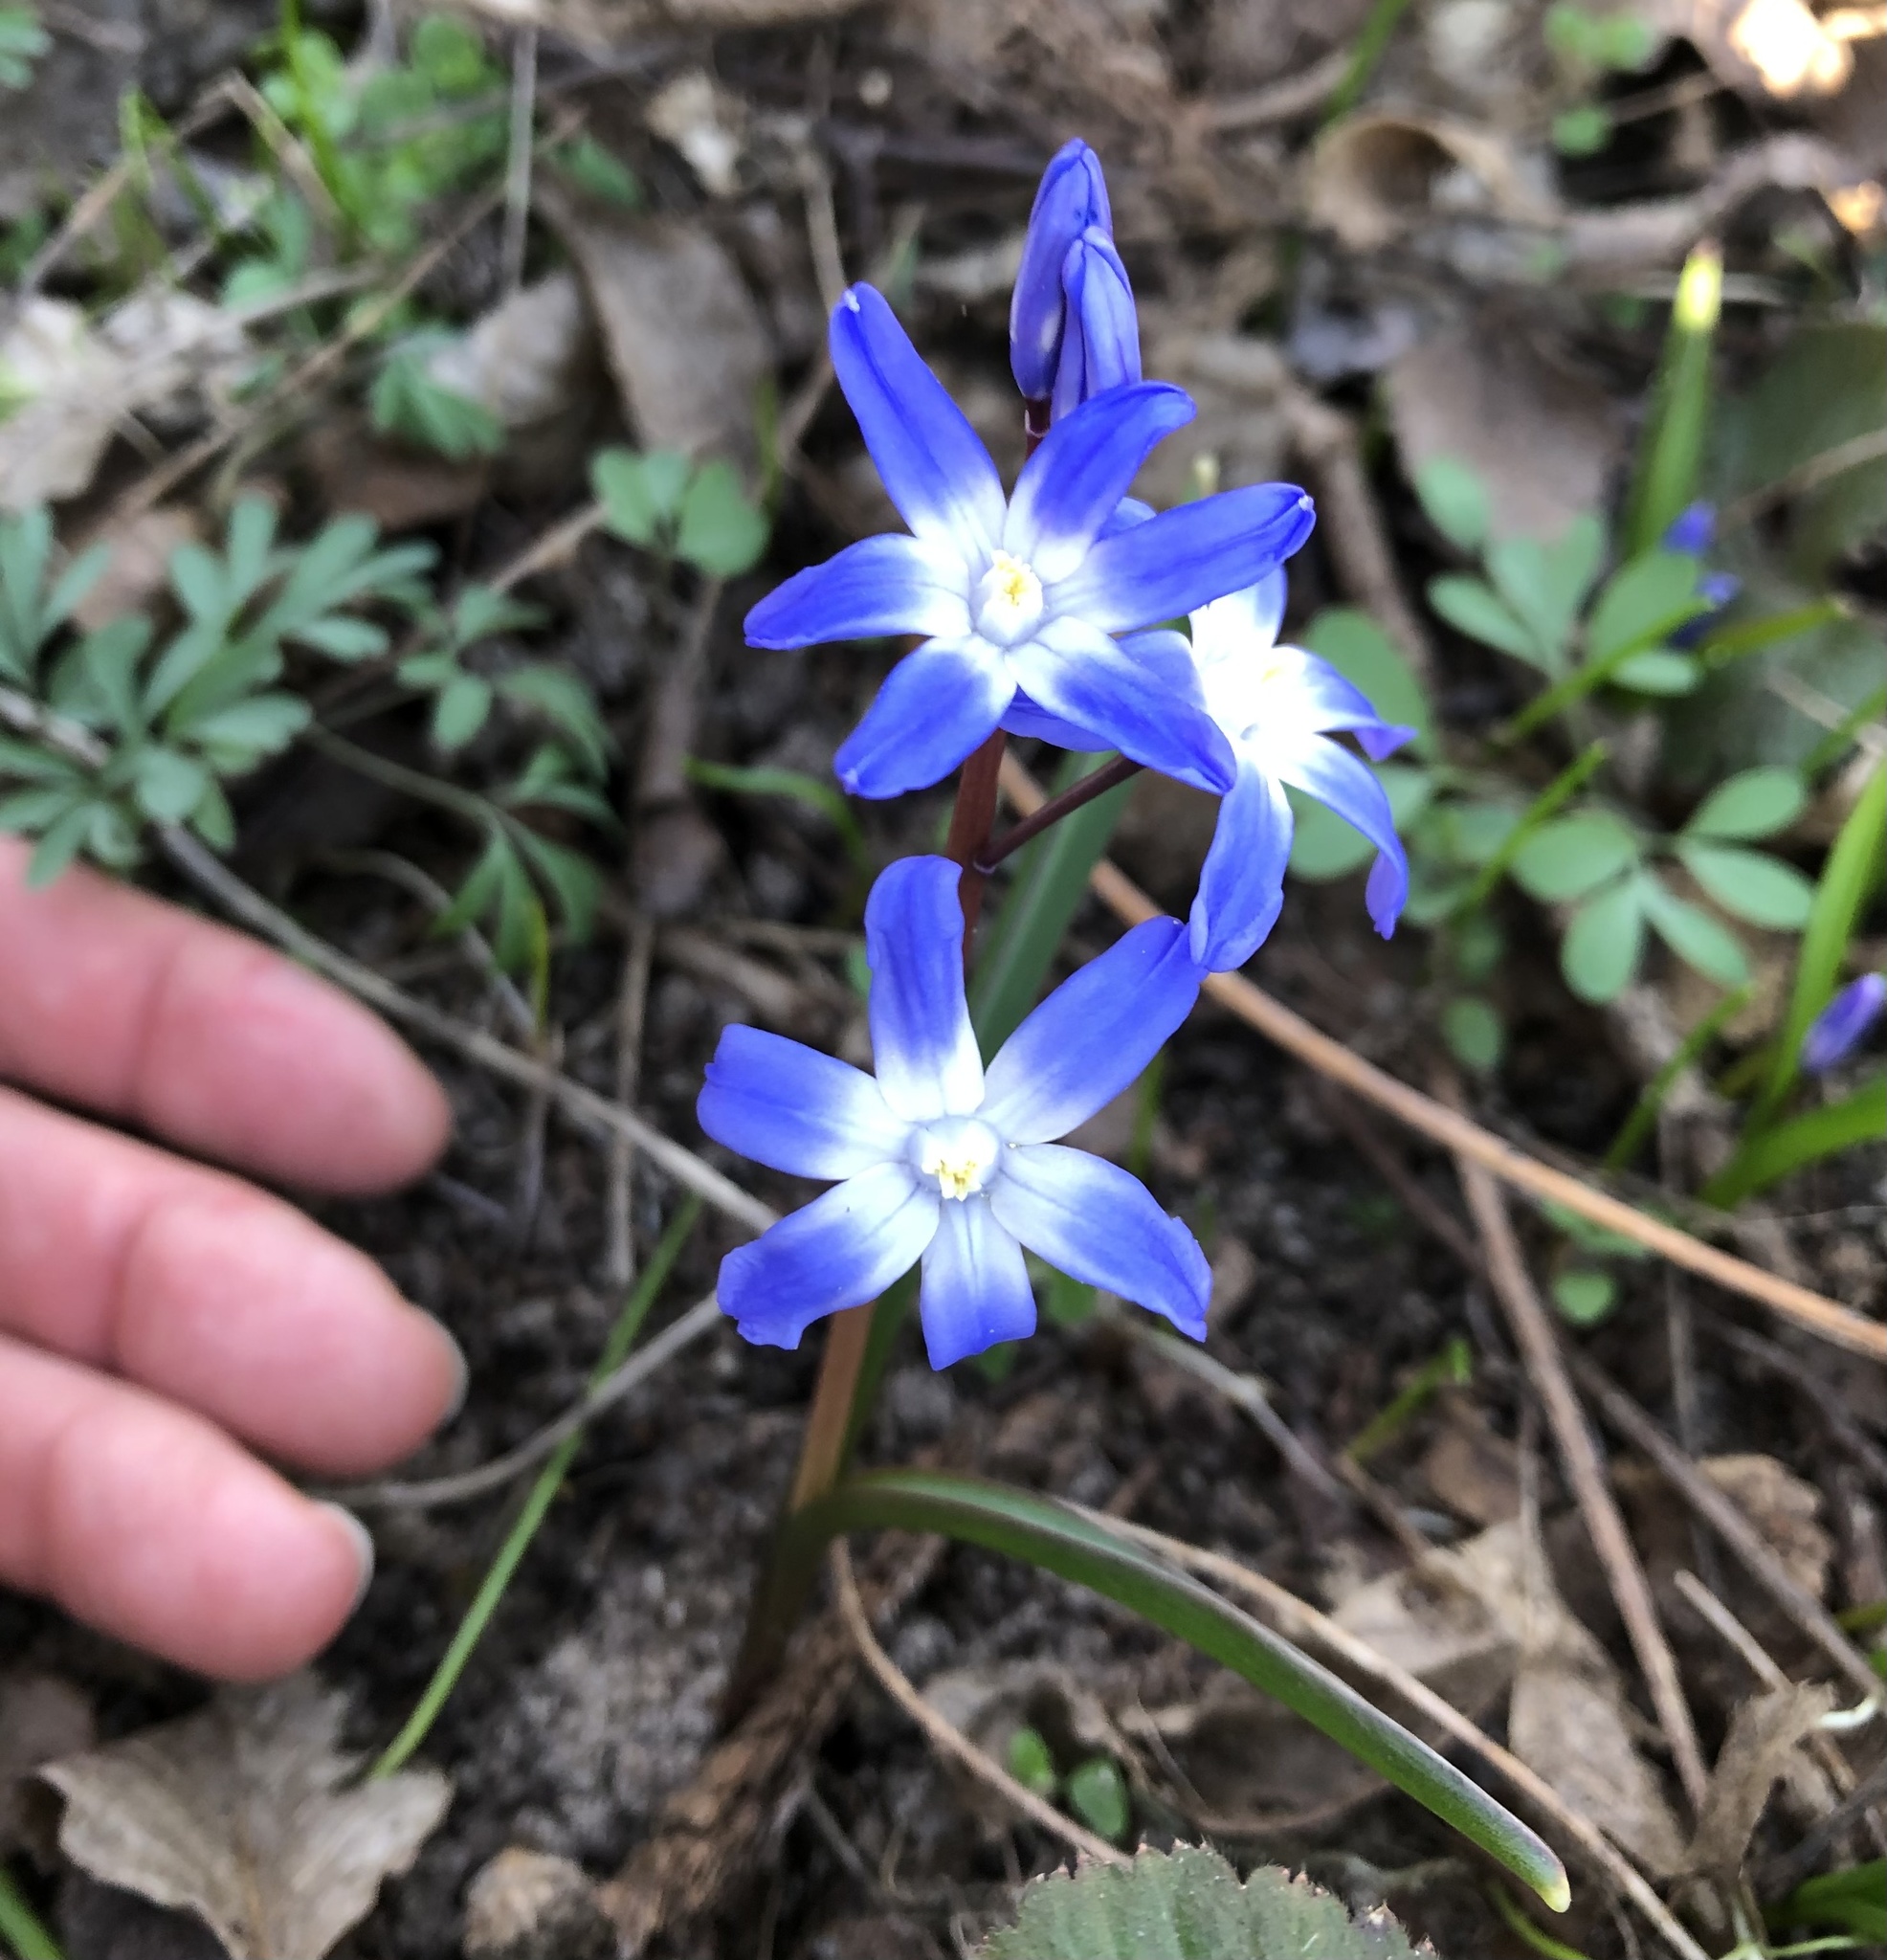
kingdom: Plantae
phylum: Tracheophyta
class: Liliopsida
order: Asparagales
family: Asparagaceae
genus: Scilla
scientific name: Scilla forbesii
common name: Glory-of-the-snow
